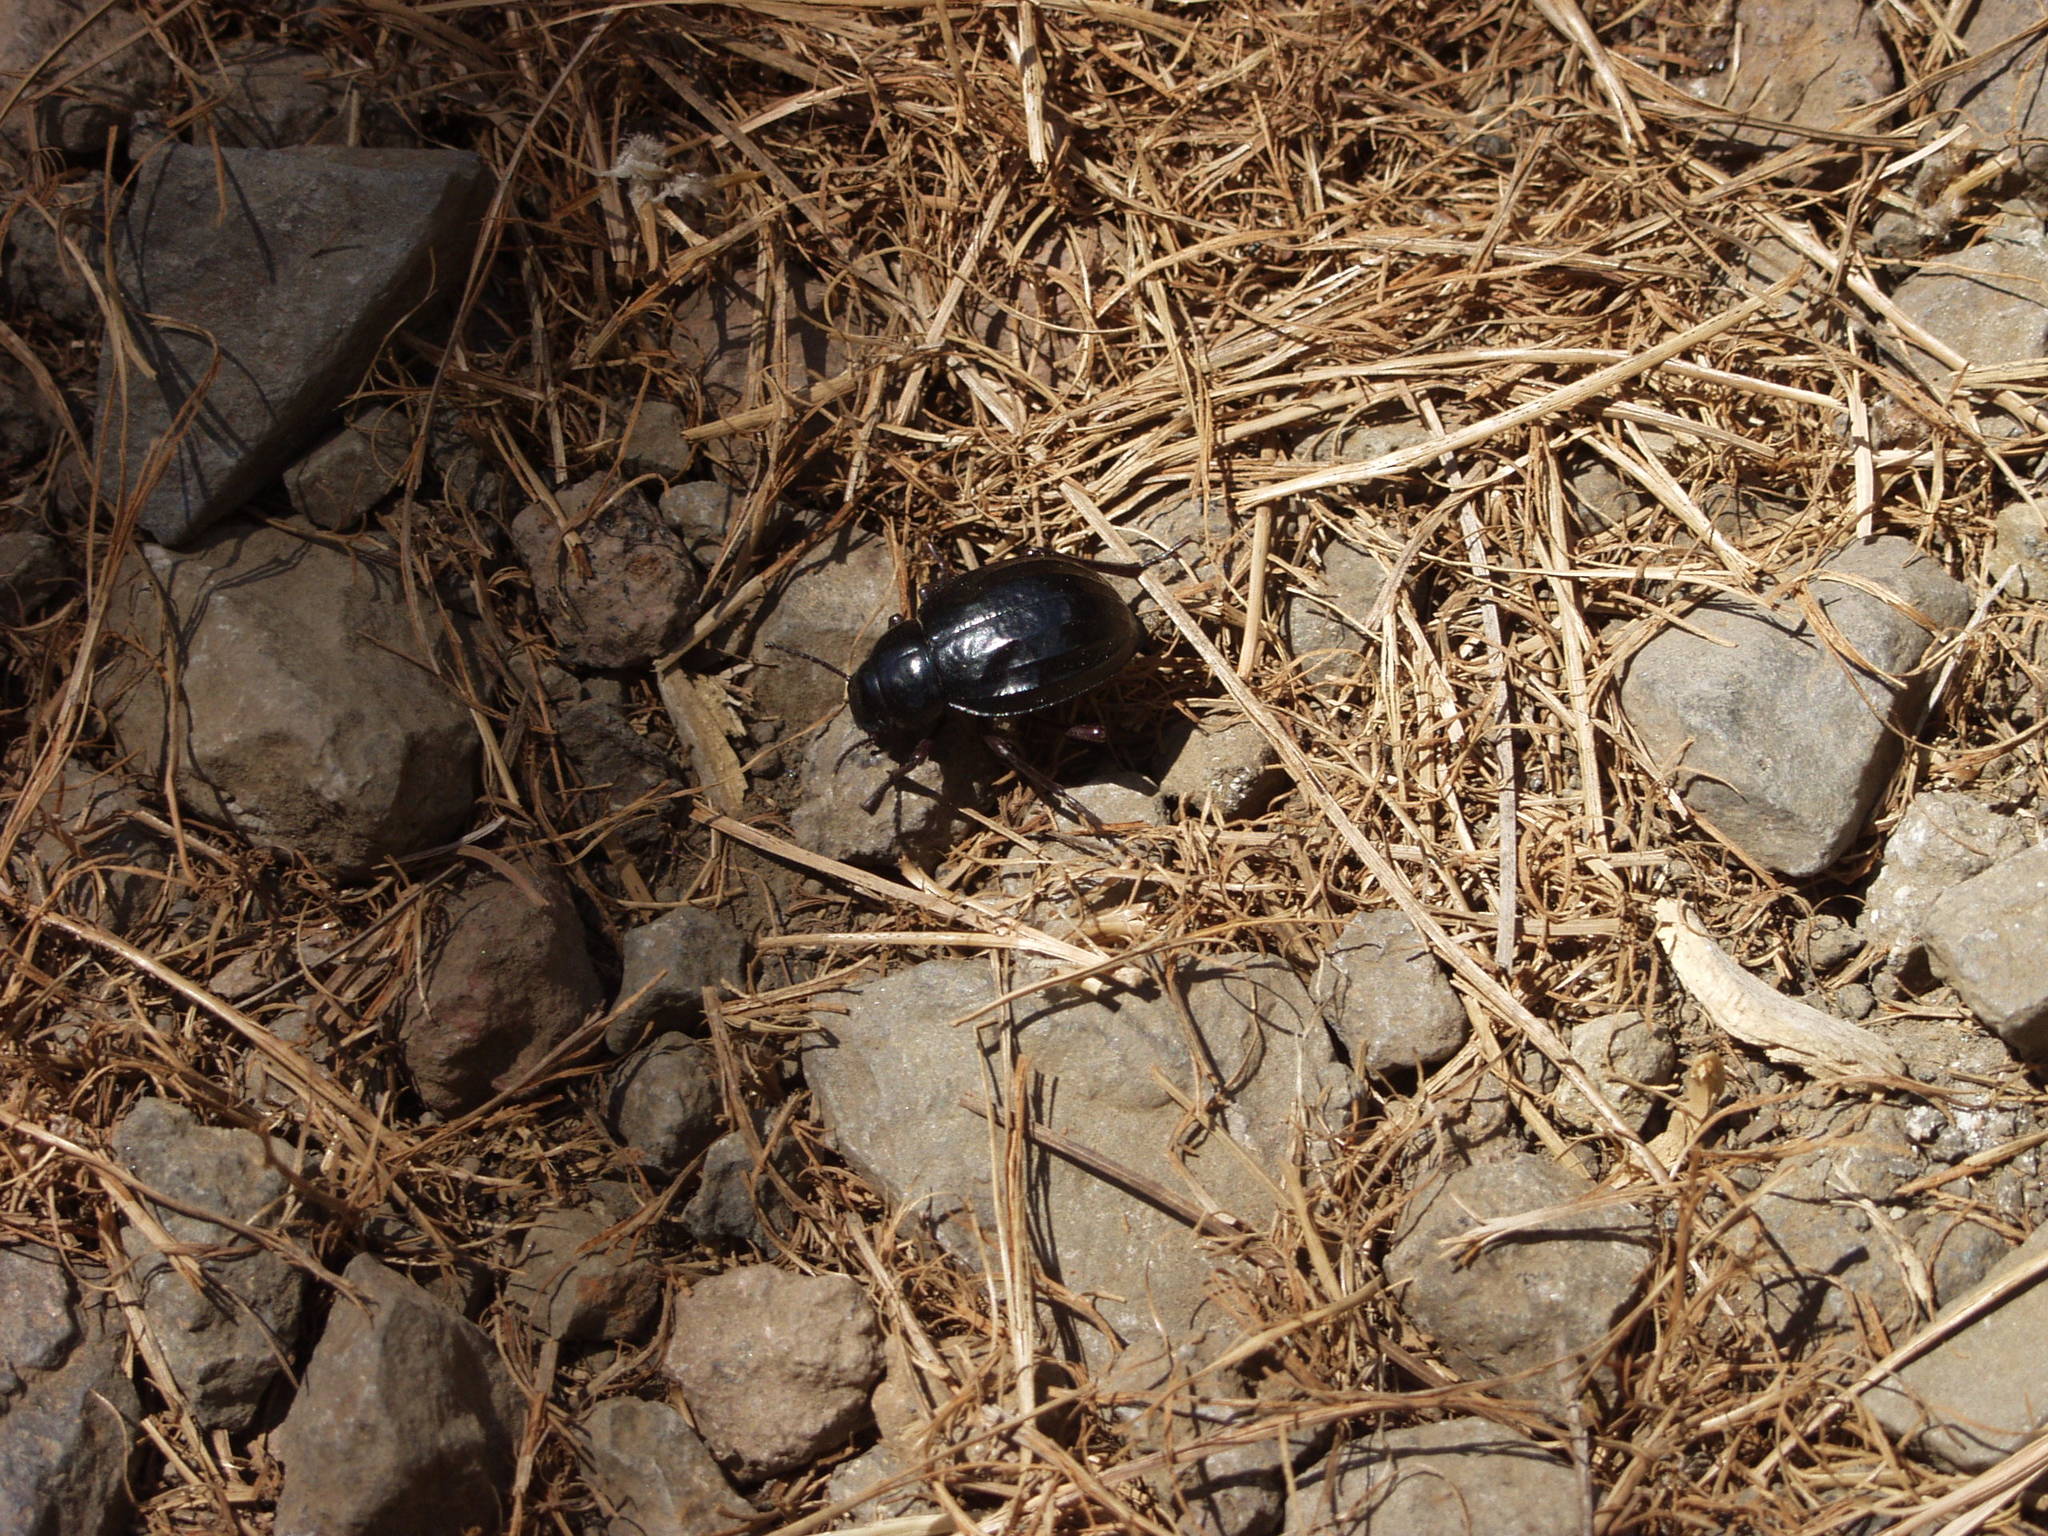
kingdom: Animalia
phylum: Arthropoda
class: Insecta
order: Coleoptera
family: Tenebrionidae
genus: Pimelia
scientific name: Pimelia laevigata
